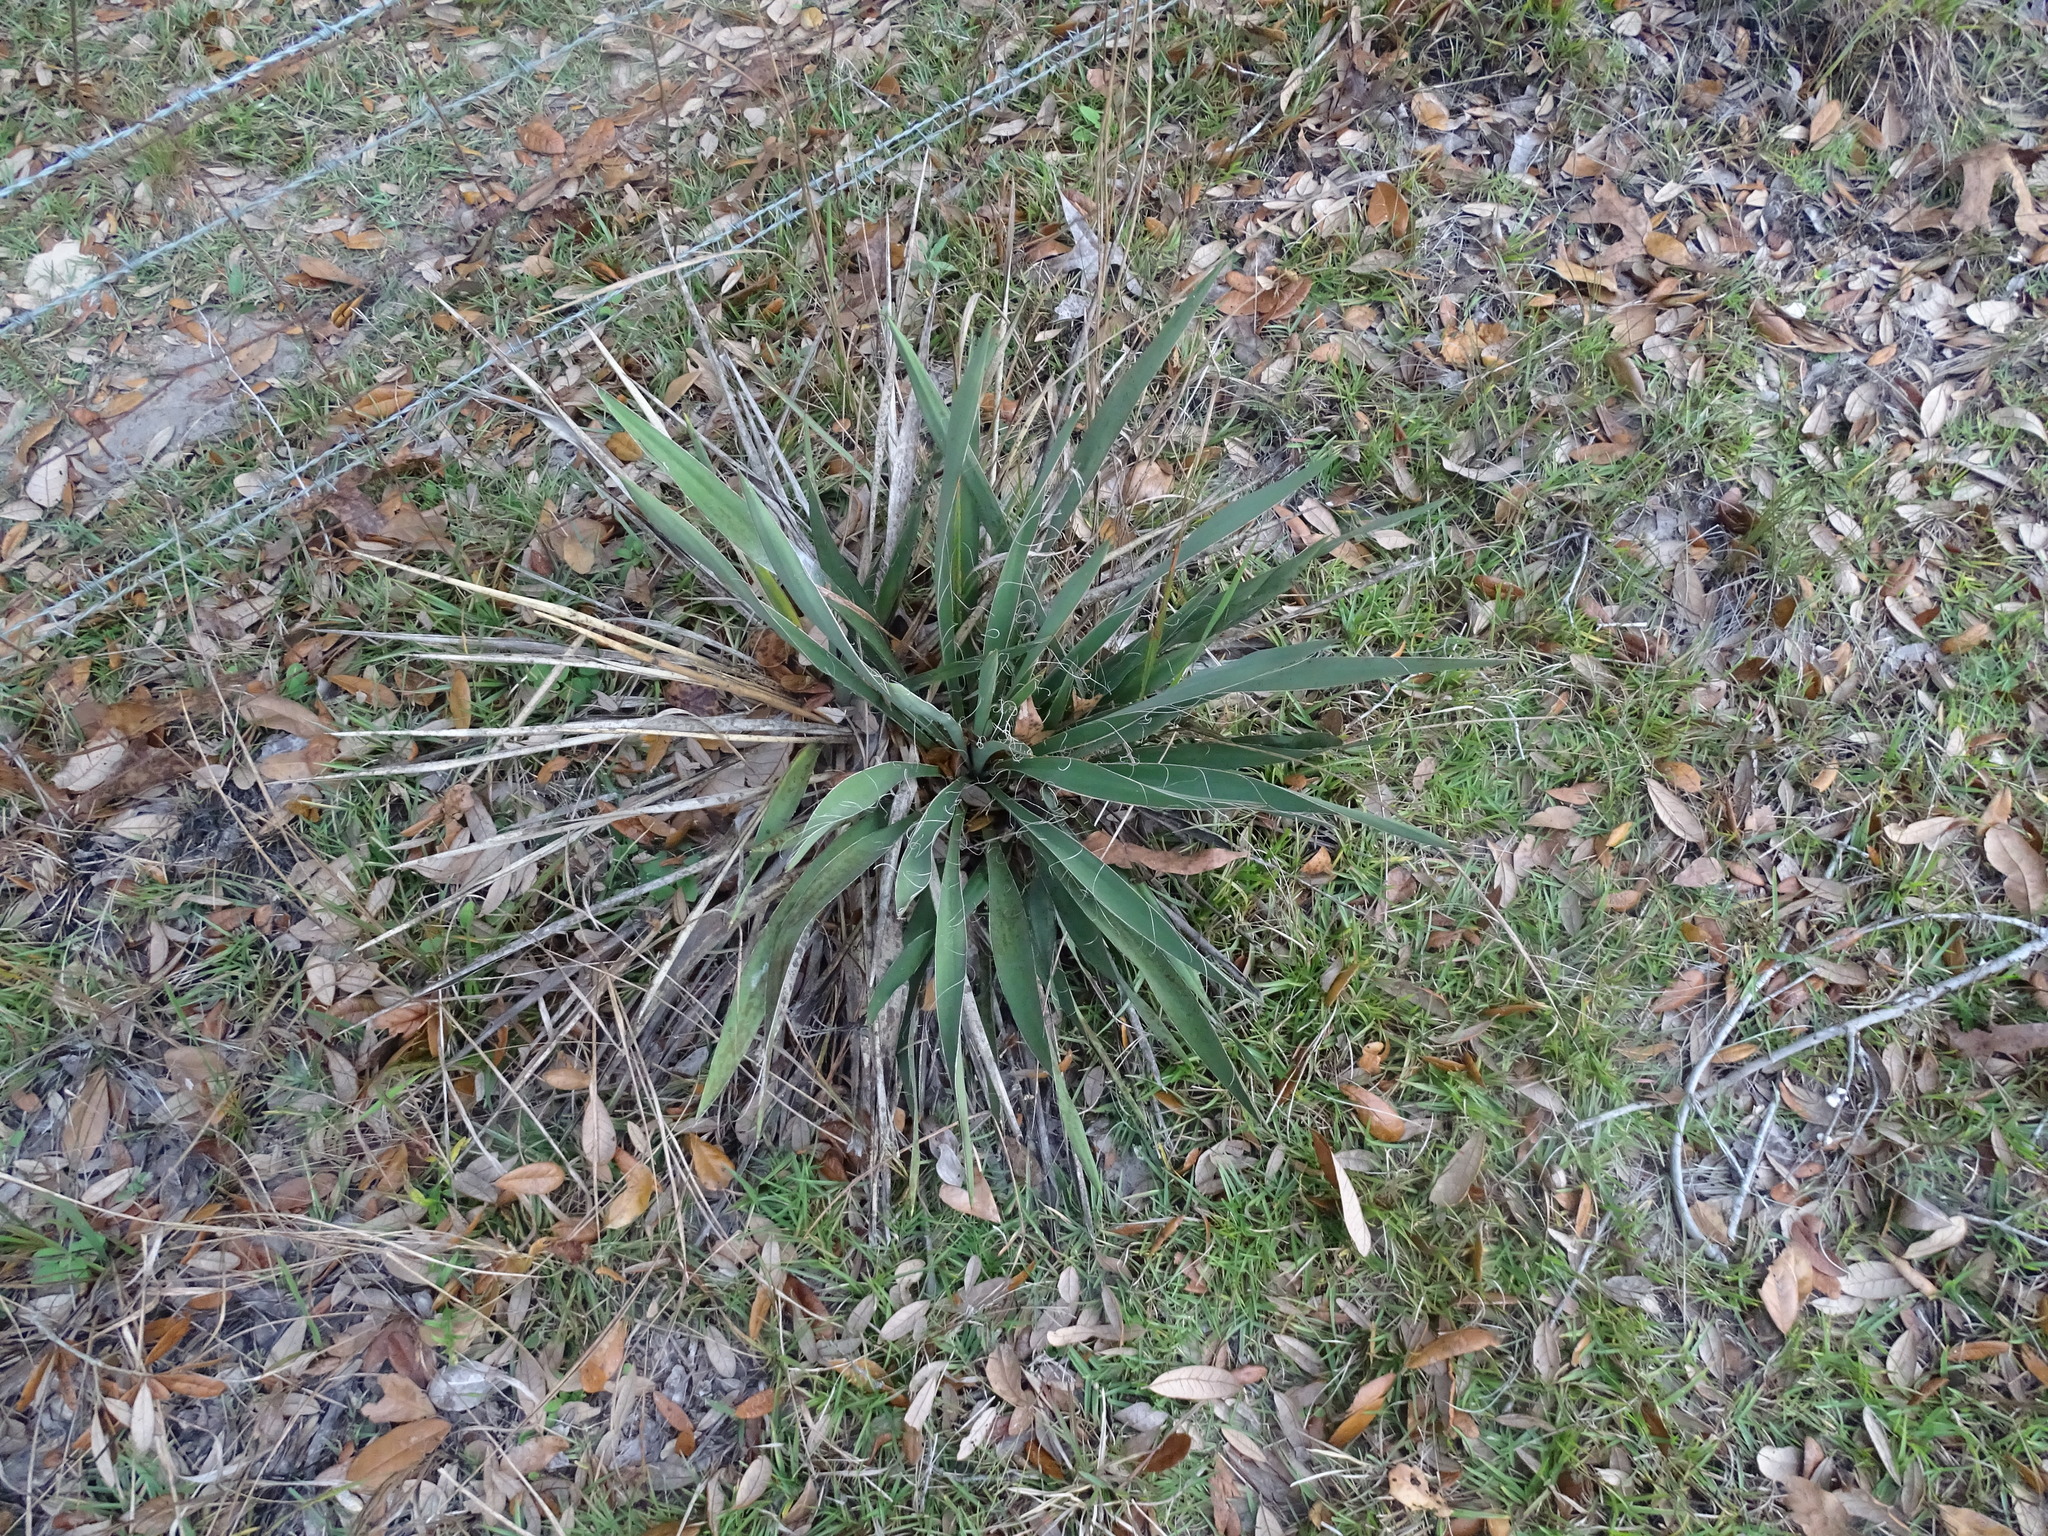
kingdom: Plantae
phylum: Tracheophyta
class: Liliopsida
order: Asparagales
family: Asparagaceae
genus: Yucca
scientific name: Yucca filamentosa
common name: Adam's-needle
